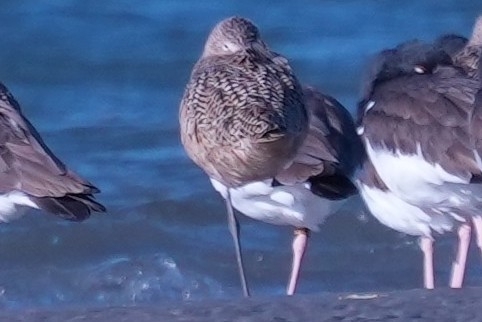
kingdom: Animalia
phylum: Chordata
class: Aves
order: Charadriiformes
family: Scolopacidae
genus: Limosa
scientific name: Limosa fedoa
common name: Marbled godwit
